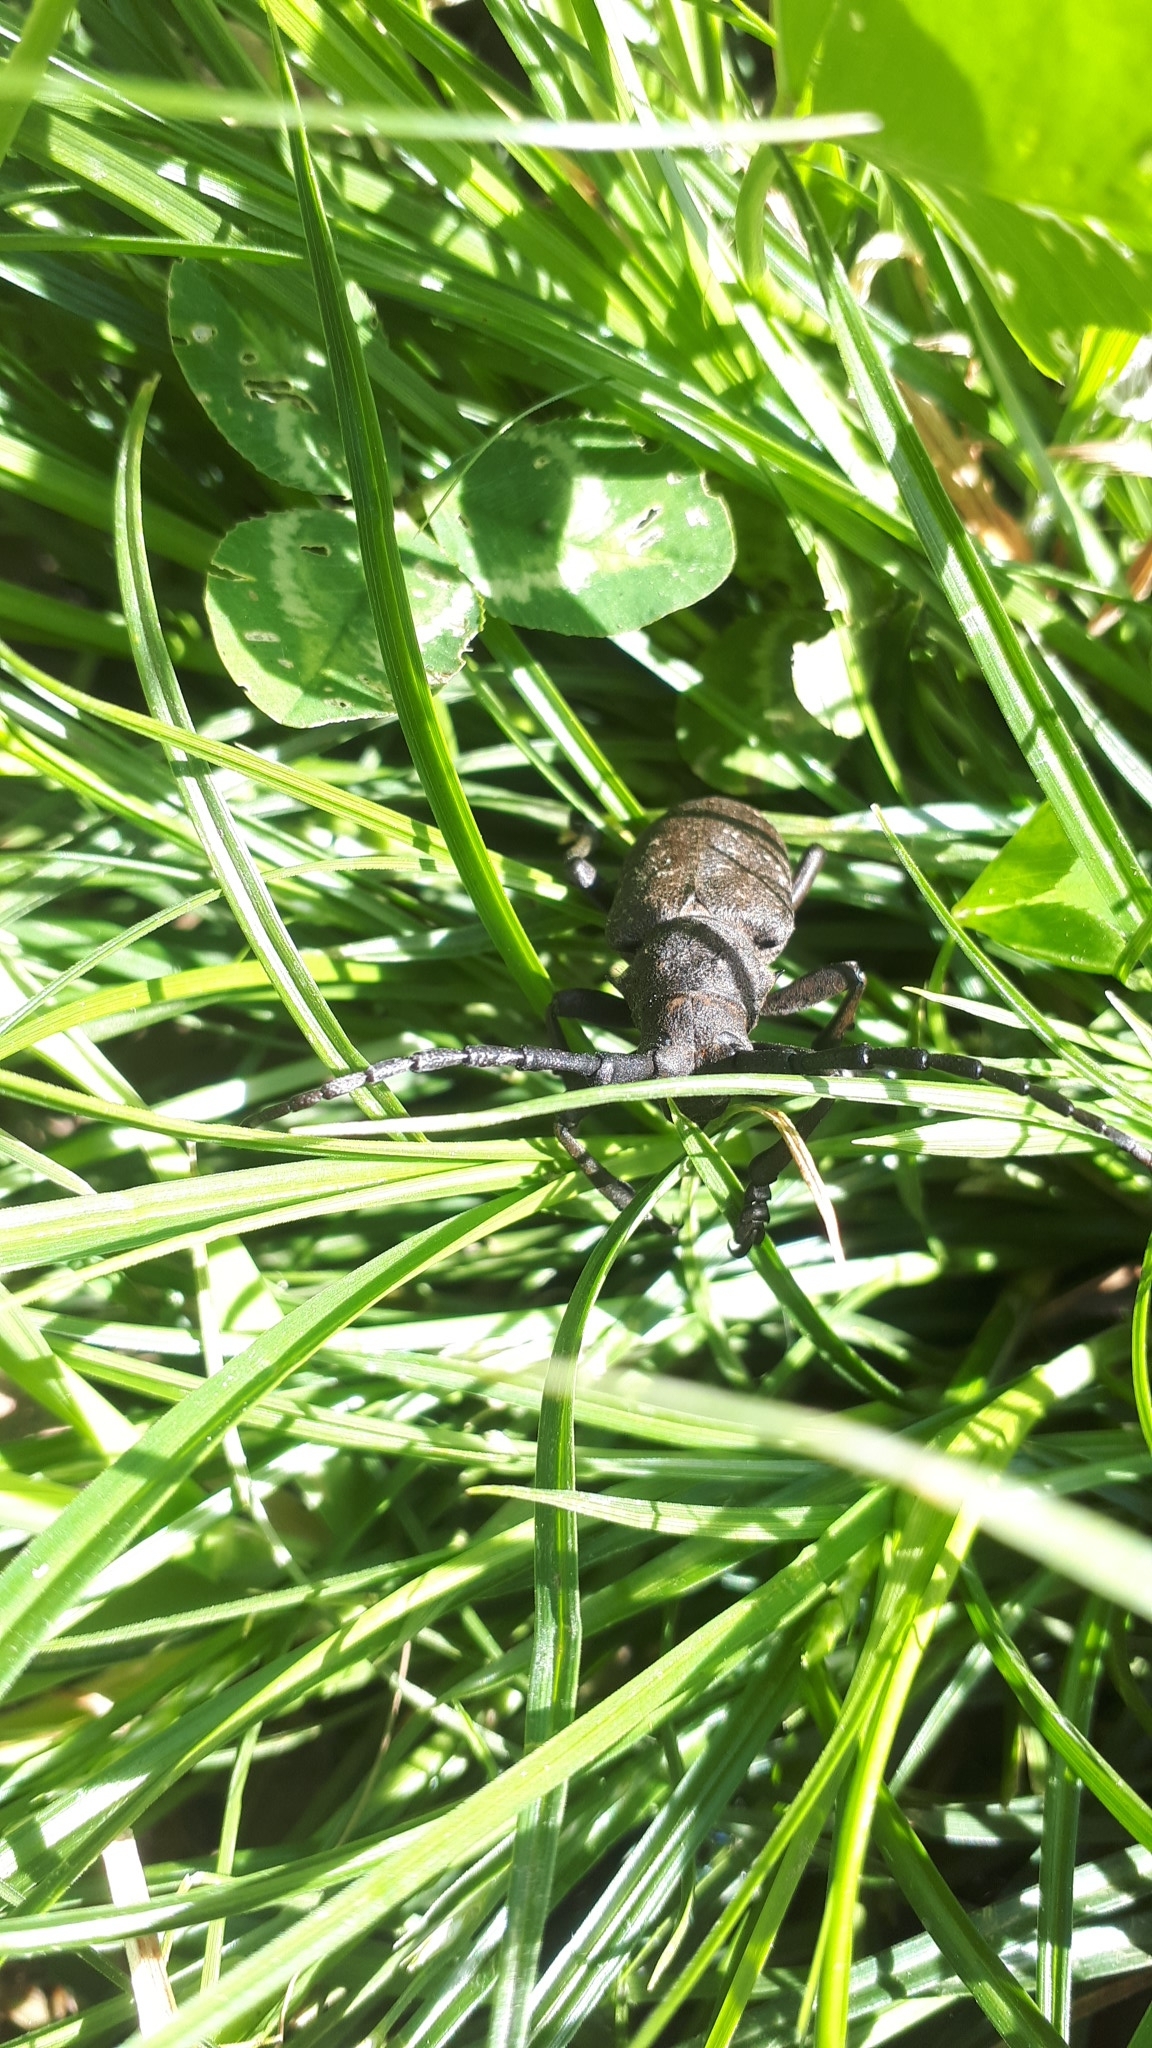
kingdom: Animalia
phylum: Arthropoda
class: Insecta
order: Coleoptera
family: Cerambycidae
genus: Lamia
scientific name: Lamia textor
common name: Weaver beetle
